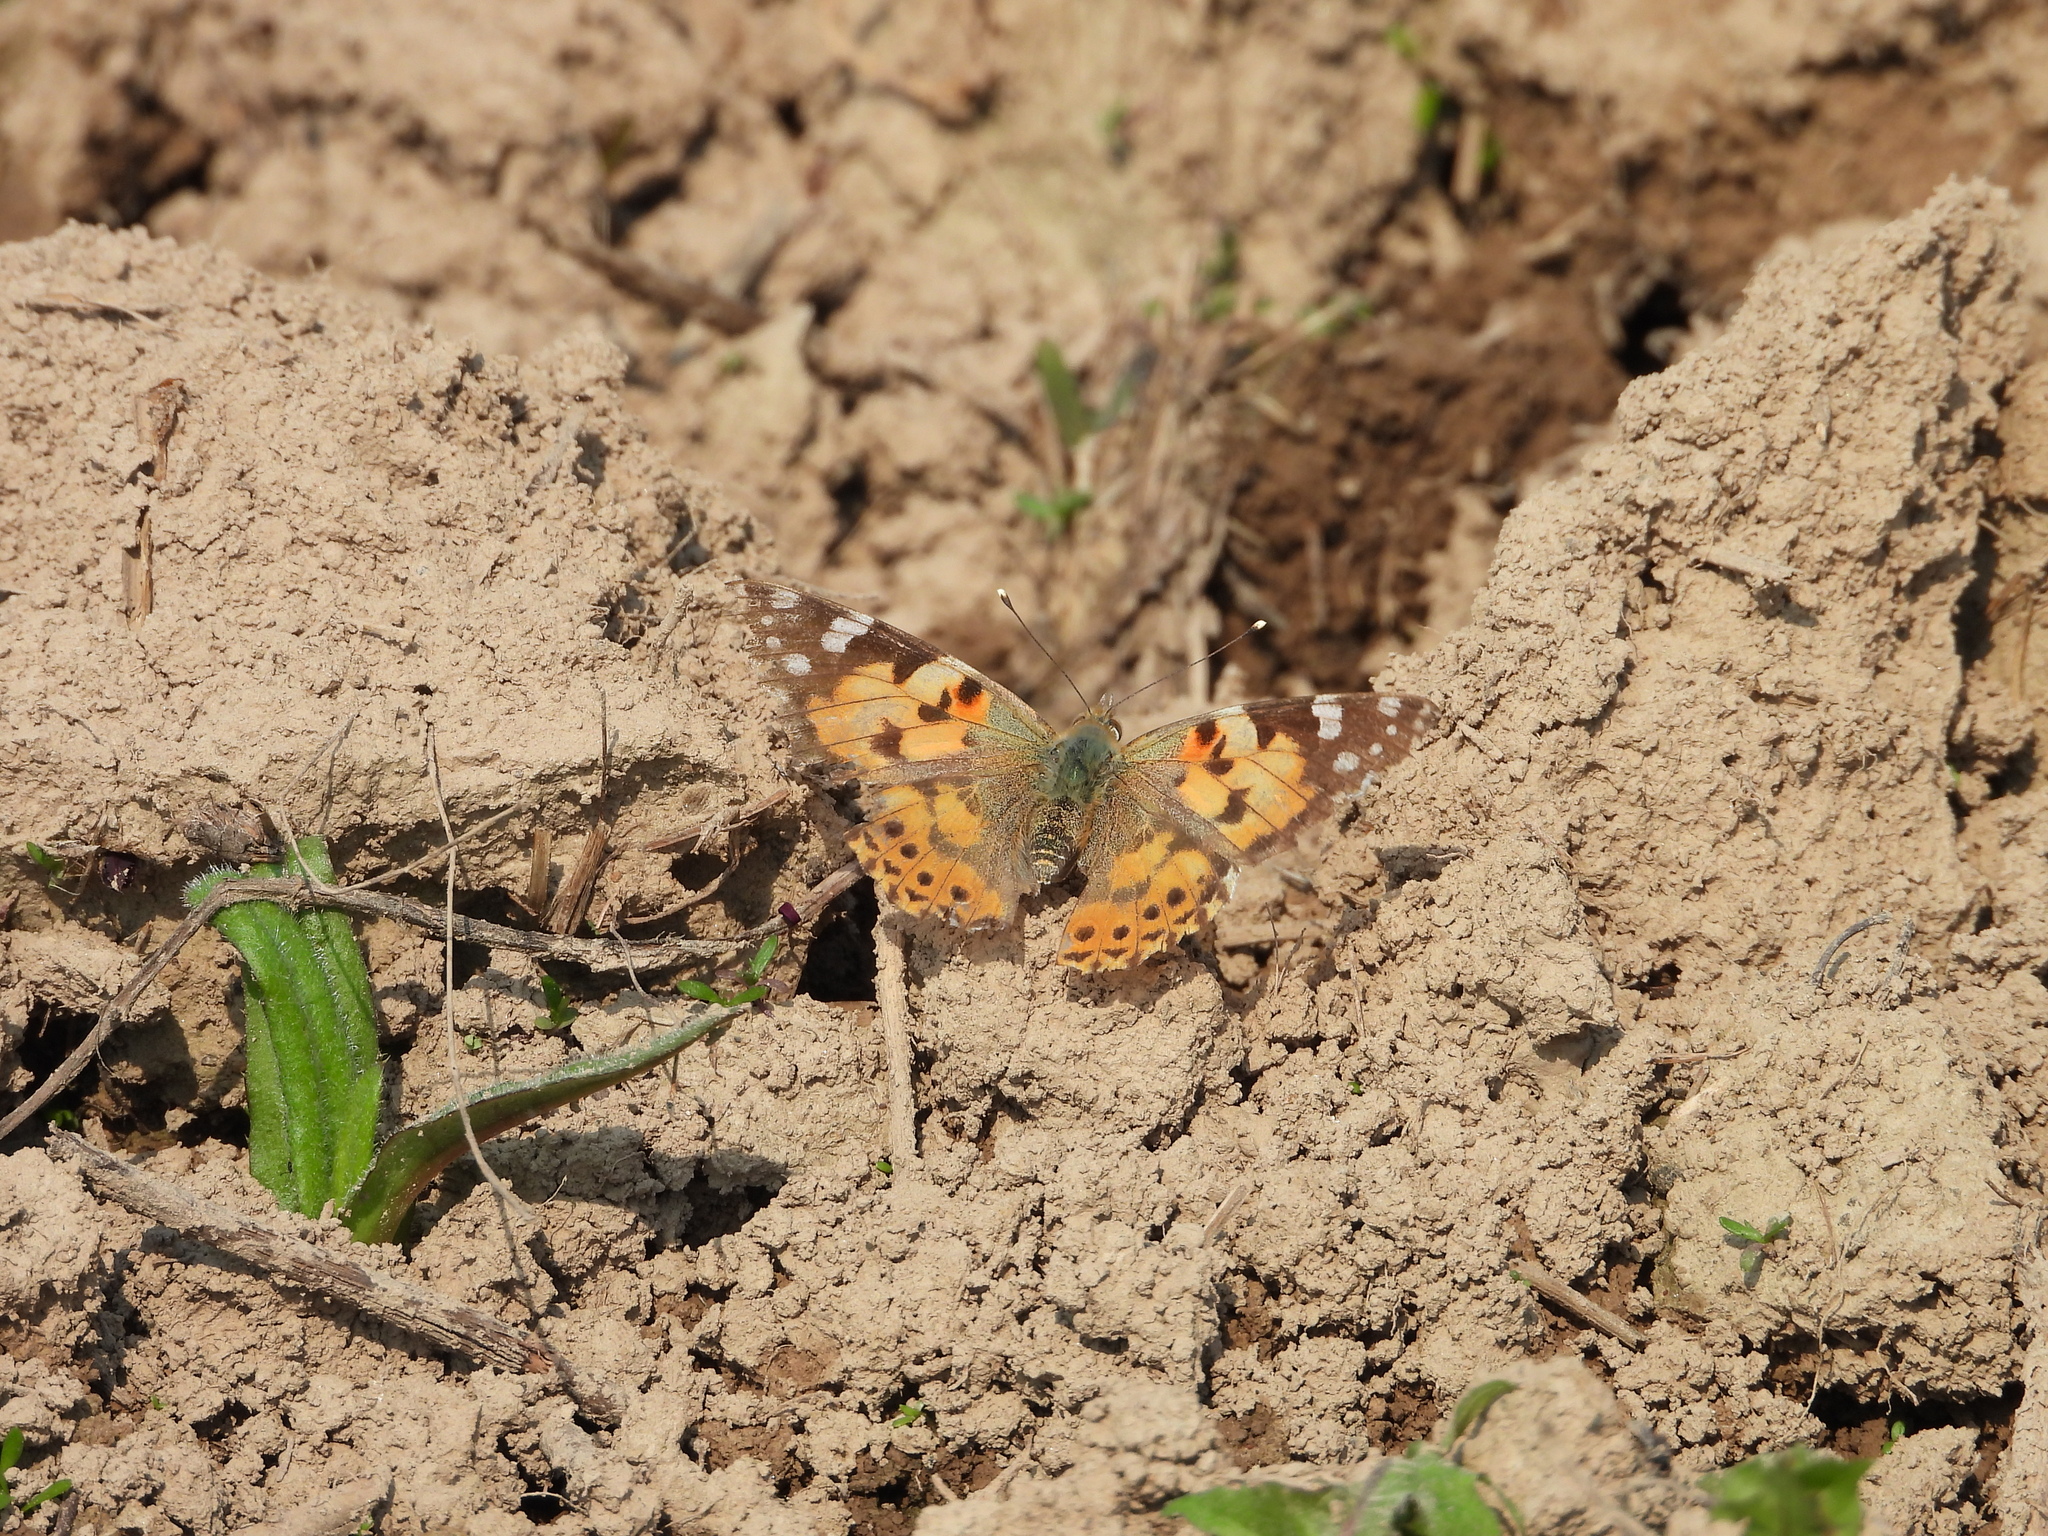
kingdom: Animalia
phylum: Arthropoda
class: Insecta
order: Lepidoptera
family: Nymphalidae
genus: Vanessa
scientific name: Vanessa cardui
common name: Painted lady
